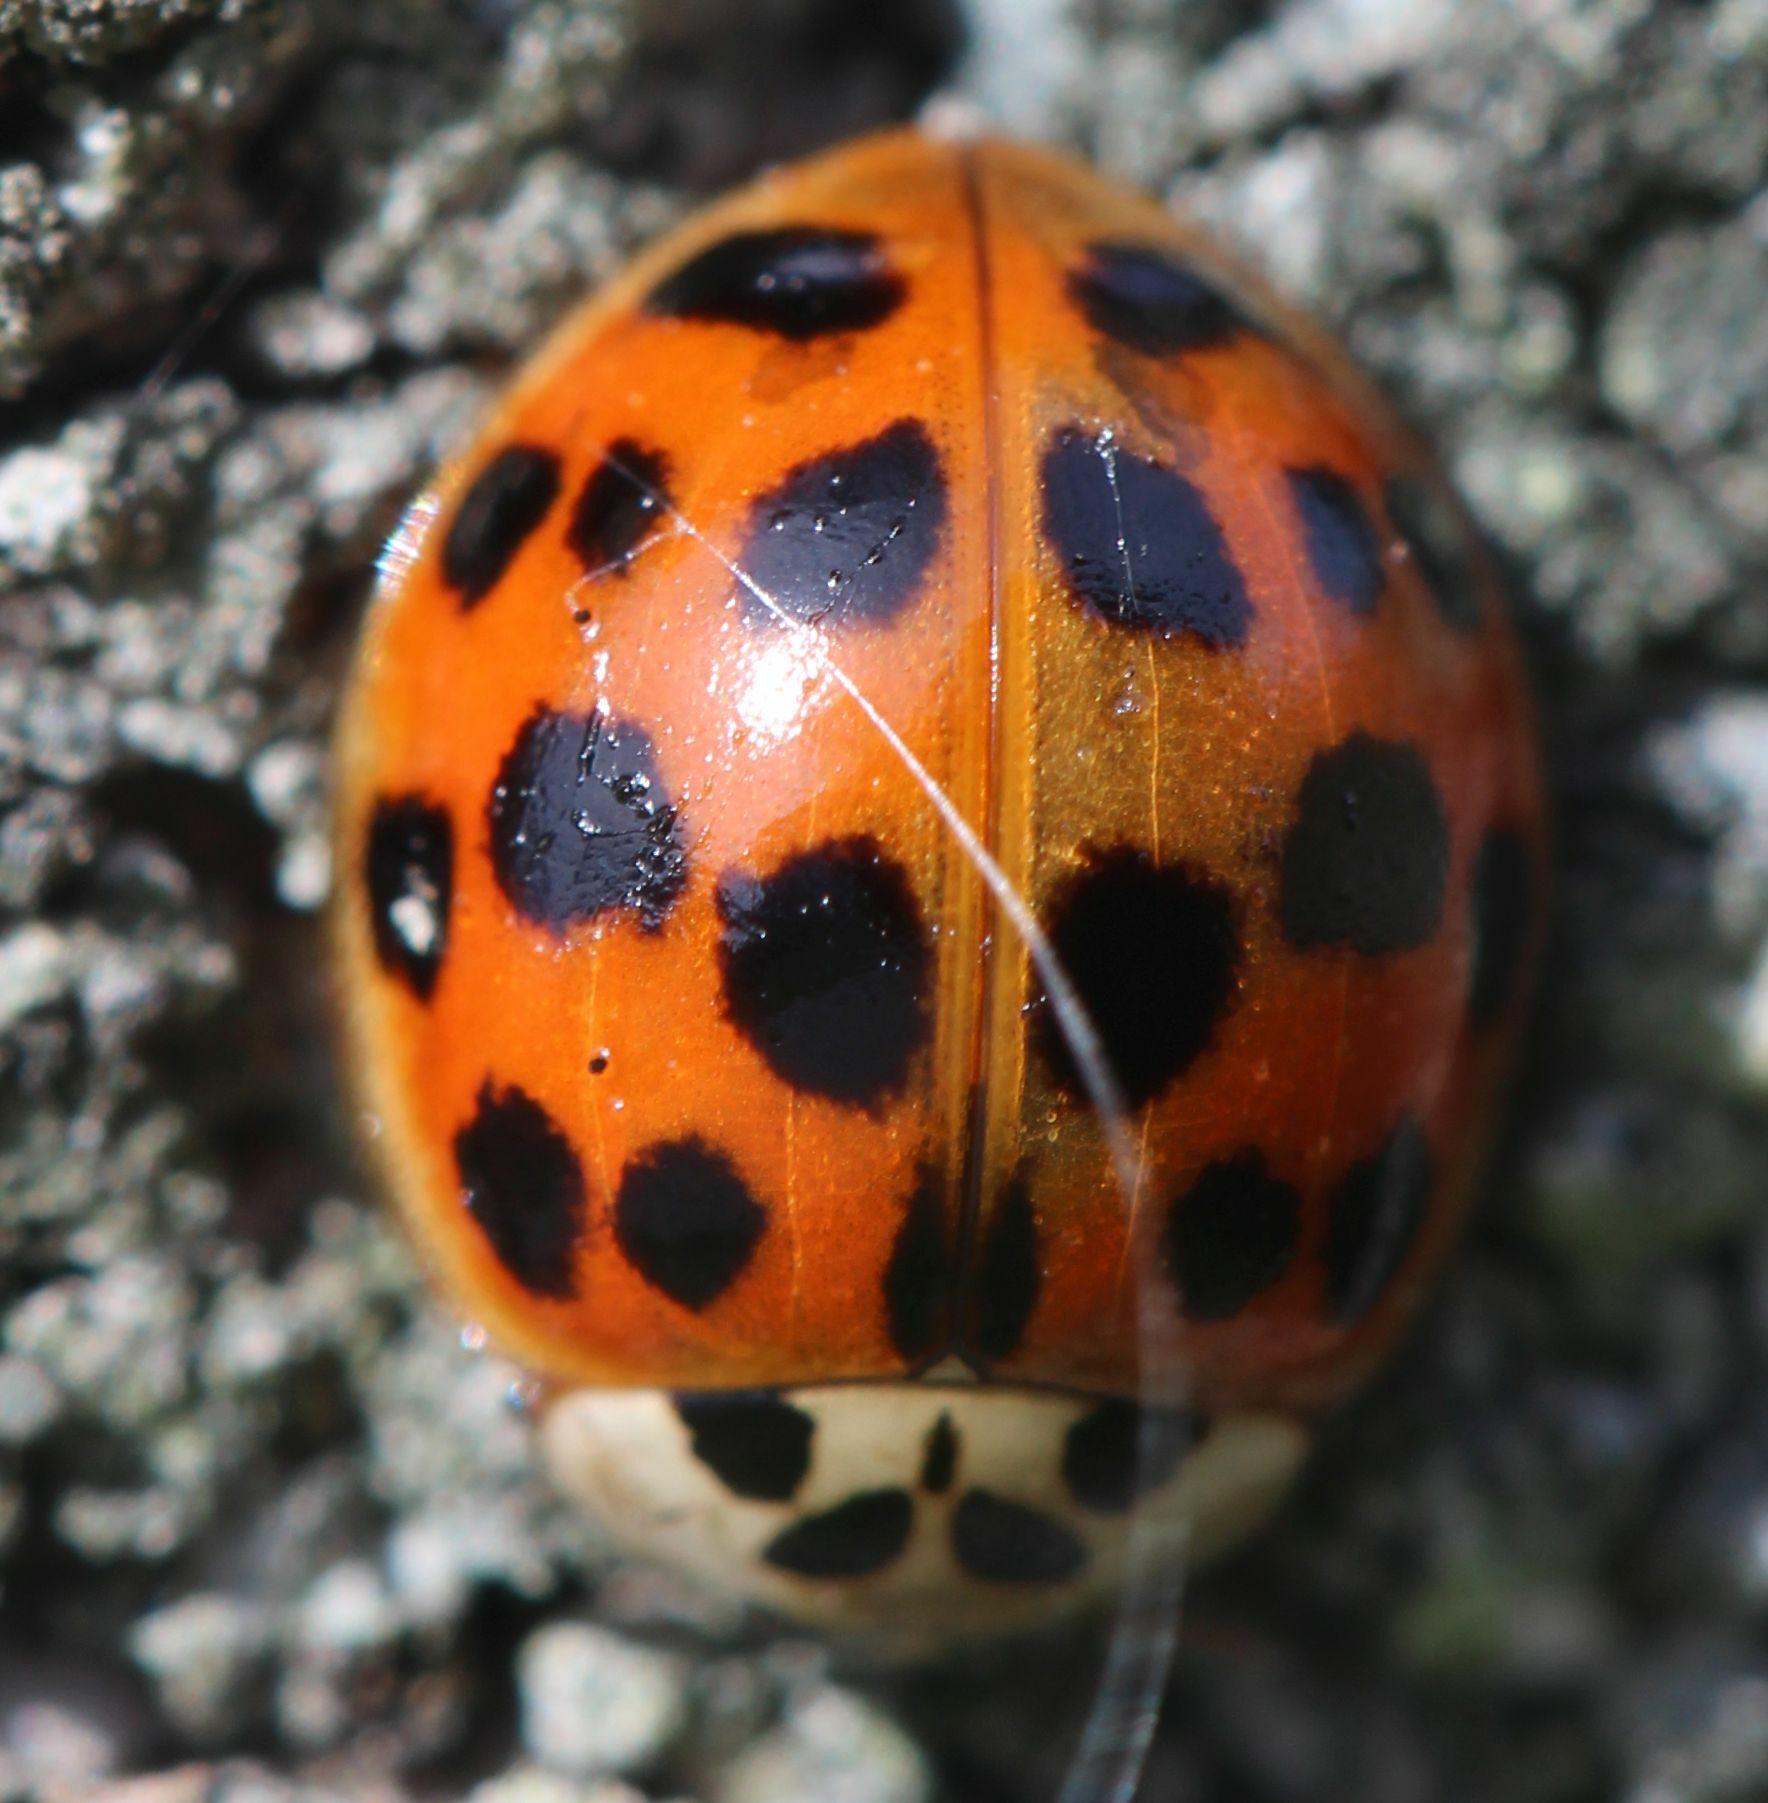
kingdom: Animalia
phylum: Arthropoda
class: Insecta
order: Coleoptera
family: Coccinellidae
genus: Harmonia
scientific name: Harmonia axyridis
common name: Harlequin ladybird
